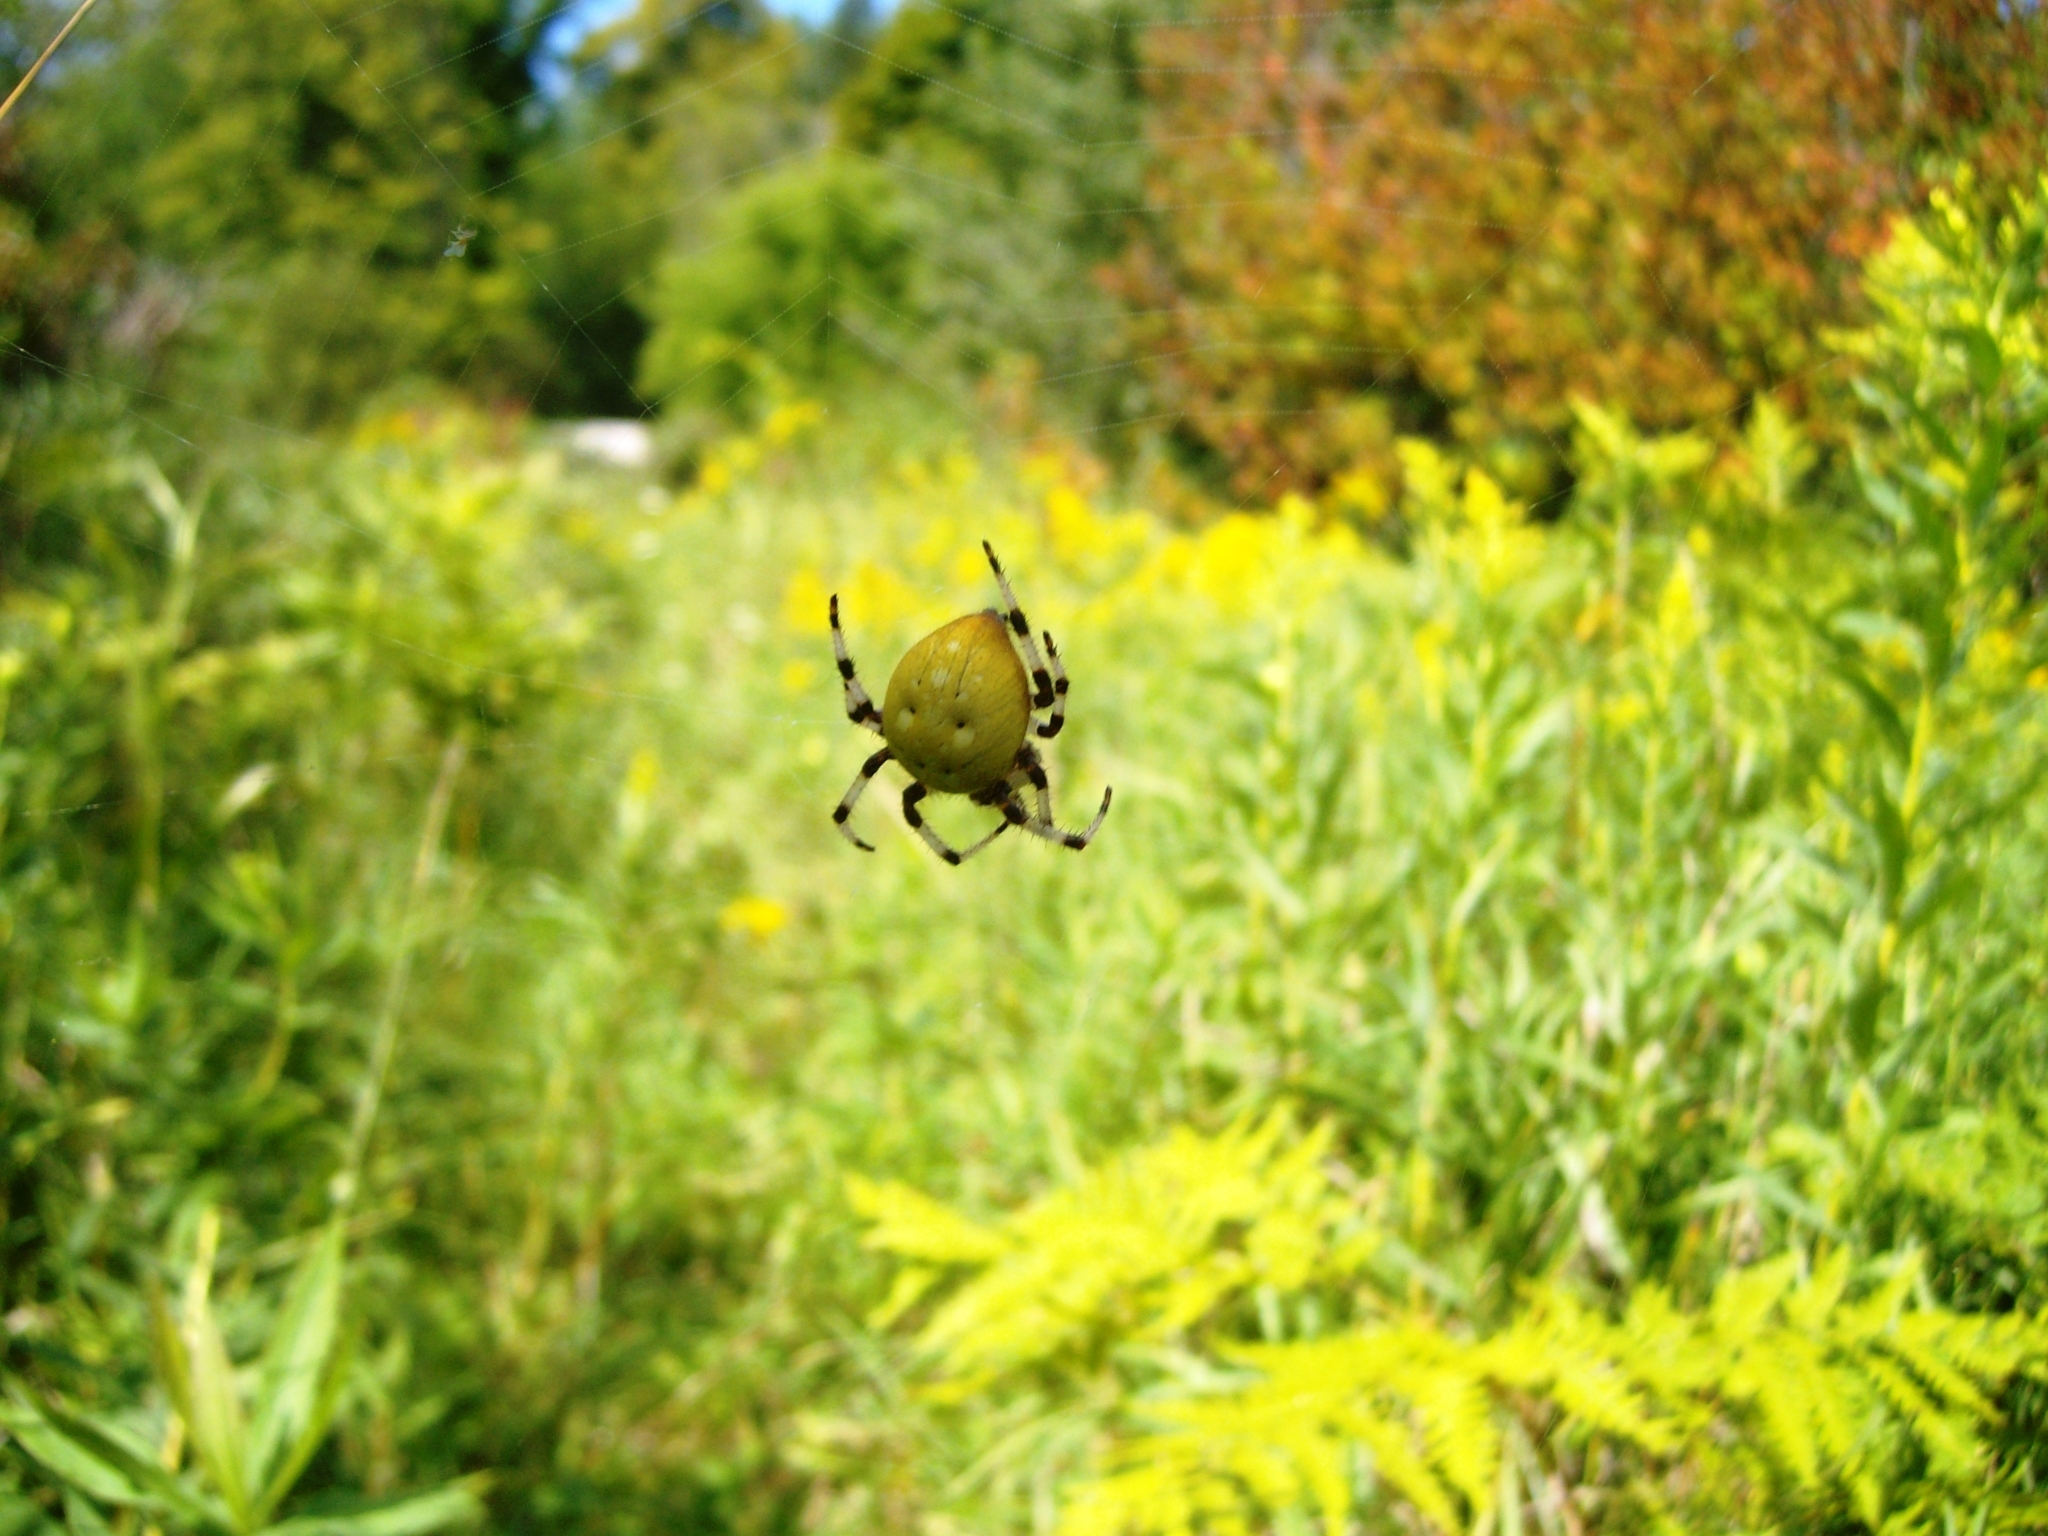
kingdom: Animalia
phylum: Arthropoda
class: Arachnida
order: Araneae
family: Araneidae
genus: Araneus
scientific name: Araneus trifolium
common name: Shamrock orbweaver
